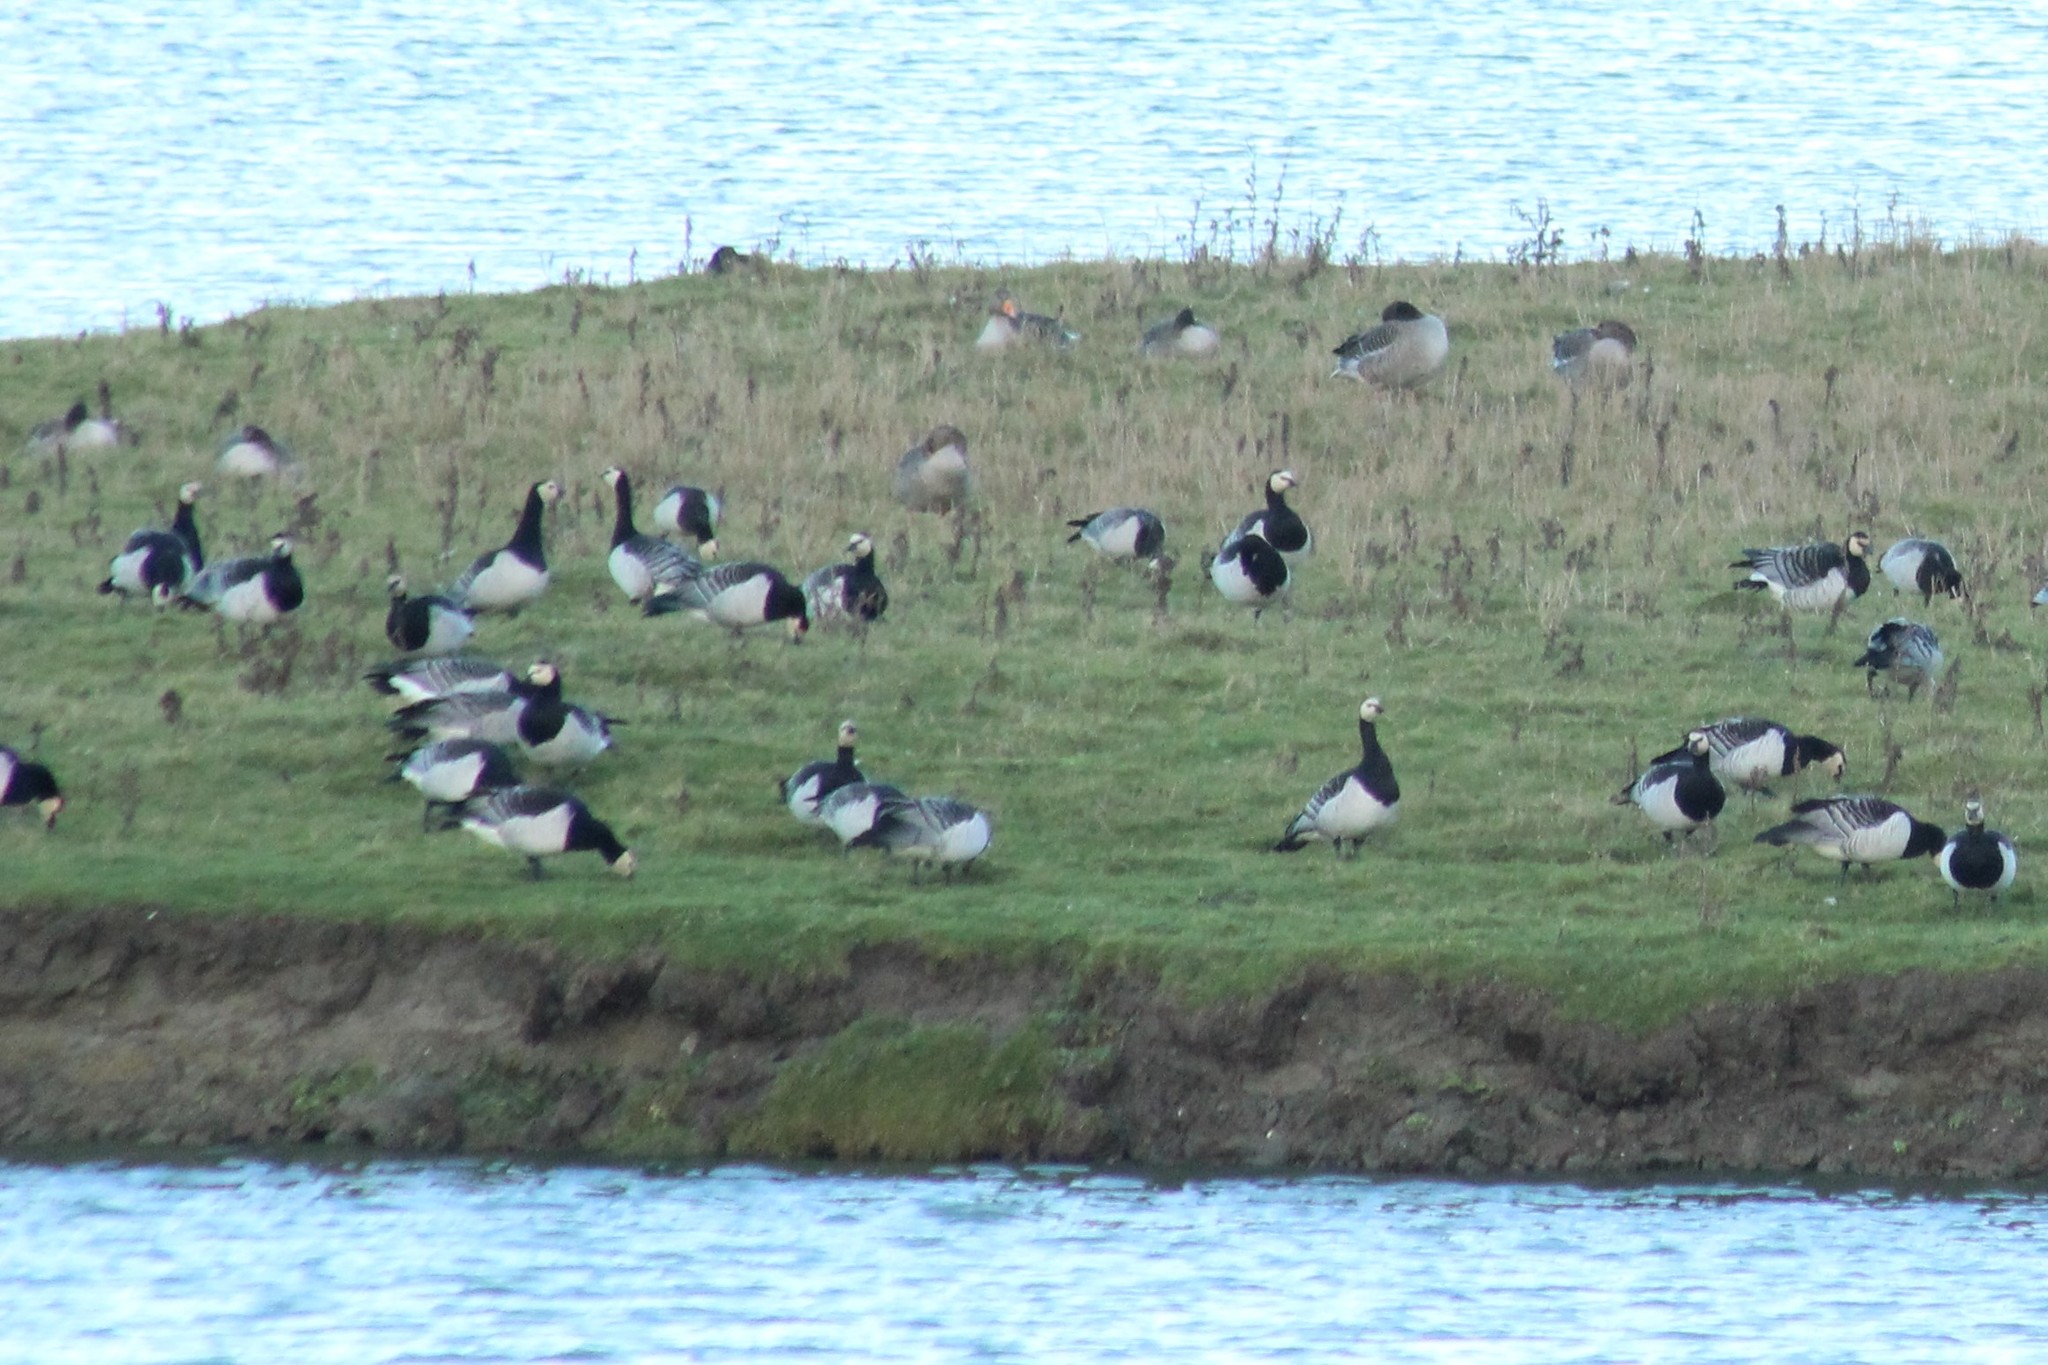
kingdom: Animalia
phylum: Chordata
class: Aves
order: Anseriformes
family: Anatidae
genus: Branta
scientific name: Branta leucopsis
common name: Barnacle goose
